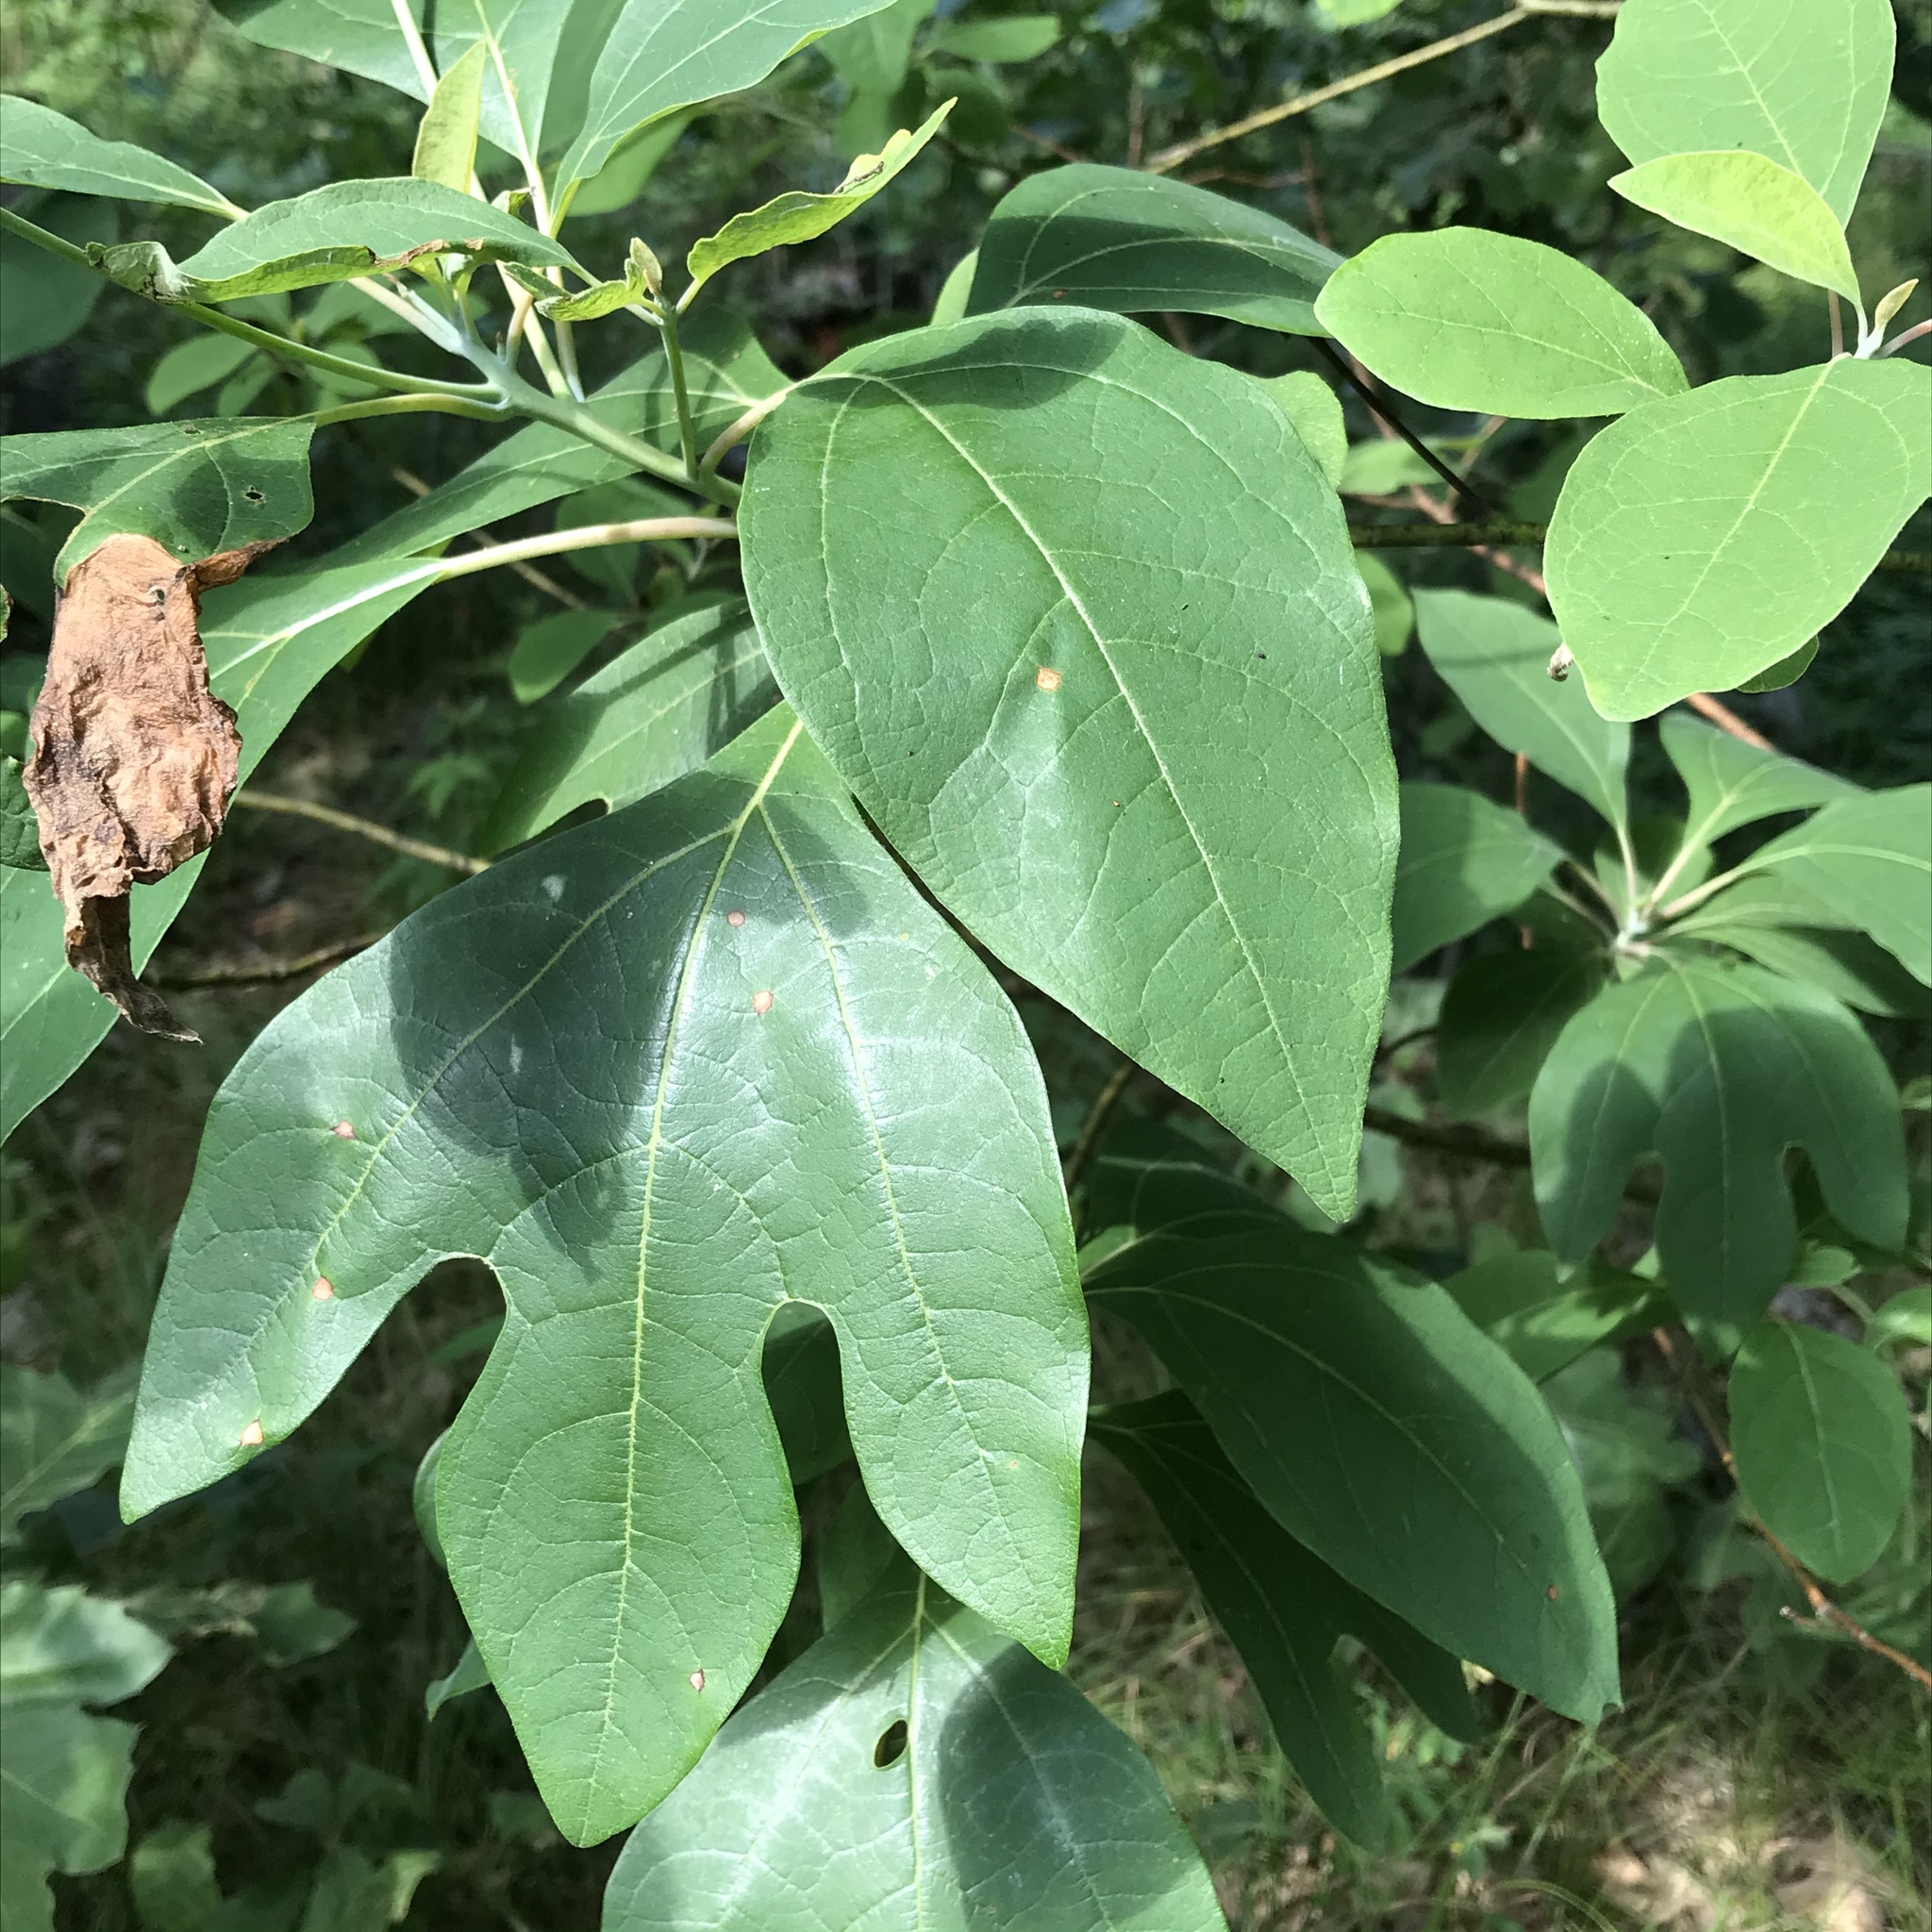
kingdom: Plantae
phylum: Tracheophyta
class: Magnoliopsida
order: Laurales
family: Lauraceae
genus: Sassafras
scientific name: Sassafras albidum
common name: Sassafras
